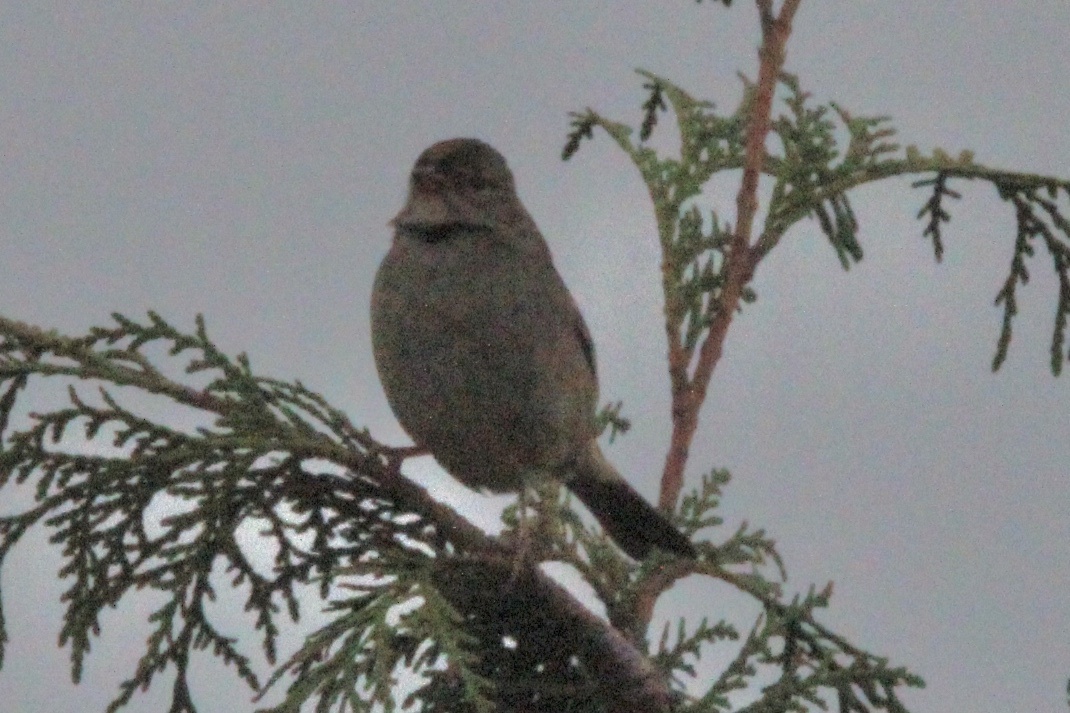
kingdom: Animalia
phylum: Chordata
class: Aves
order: Passeriformes
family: Passerellidae
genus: Zonotrichia
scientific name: Zonotrichia atricapilla
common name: Golden-crowned sparrow
